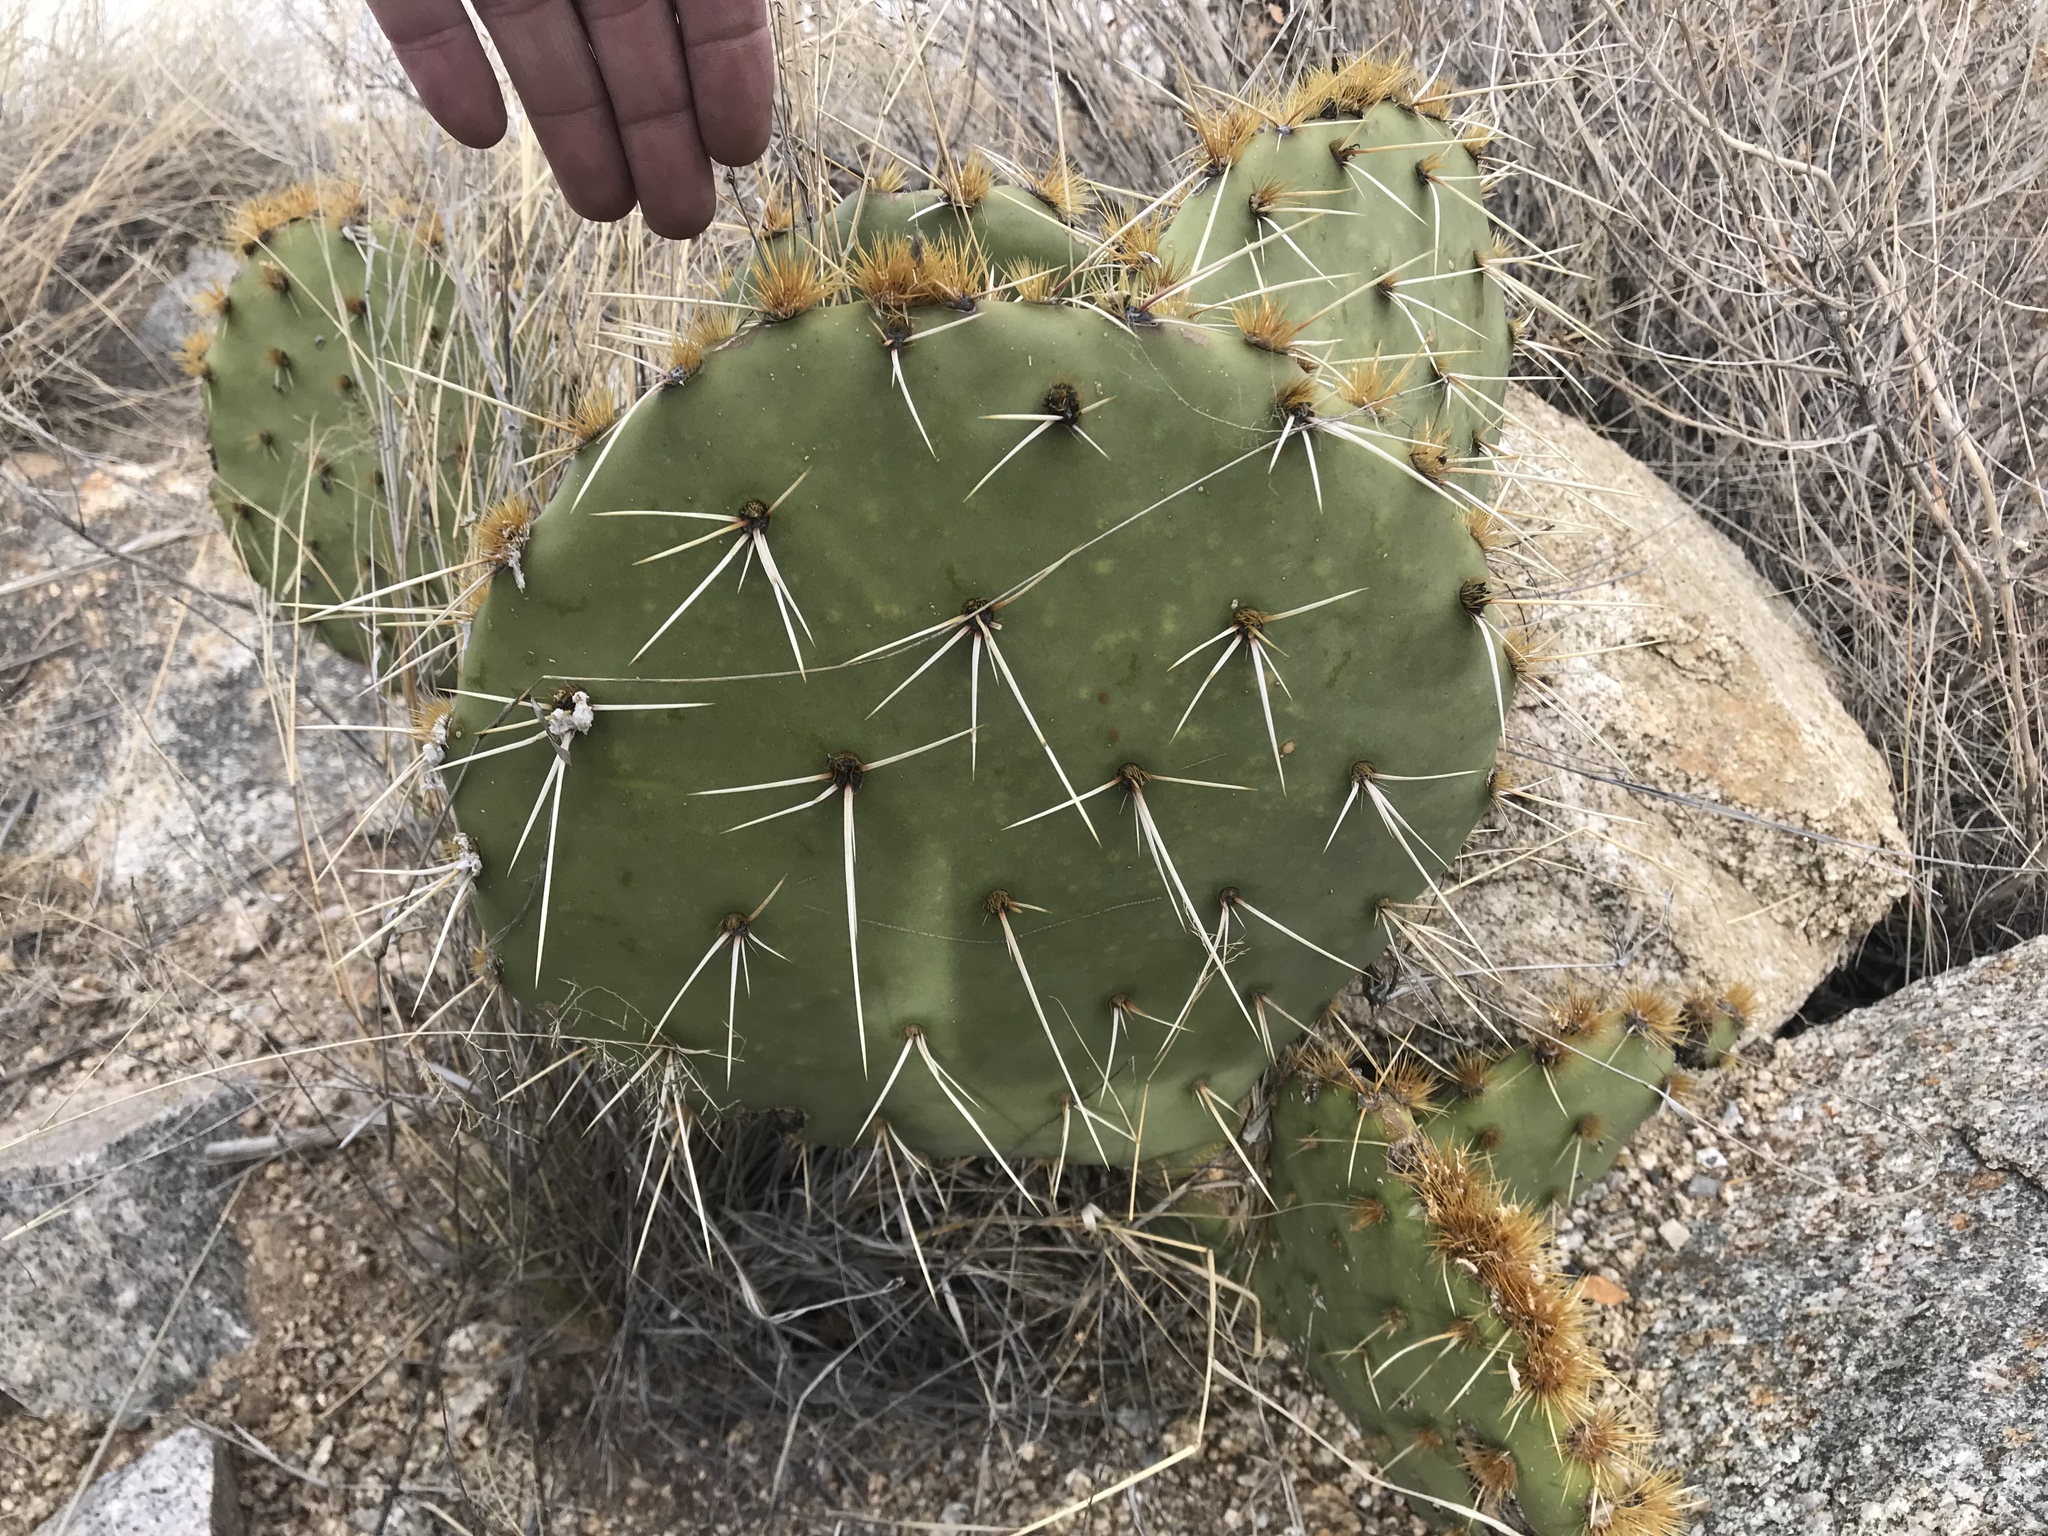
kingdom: Plantae
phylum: Tracheophyta
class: Magnoliopsida
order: Caryophyllales
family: Cactaceae
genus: Opuntia
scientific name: Opuntia engelmannii
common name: Cactus-apple
